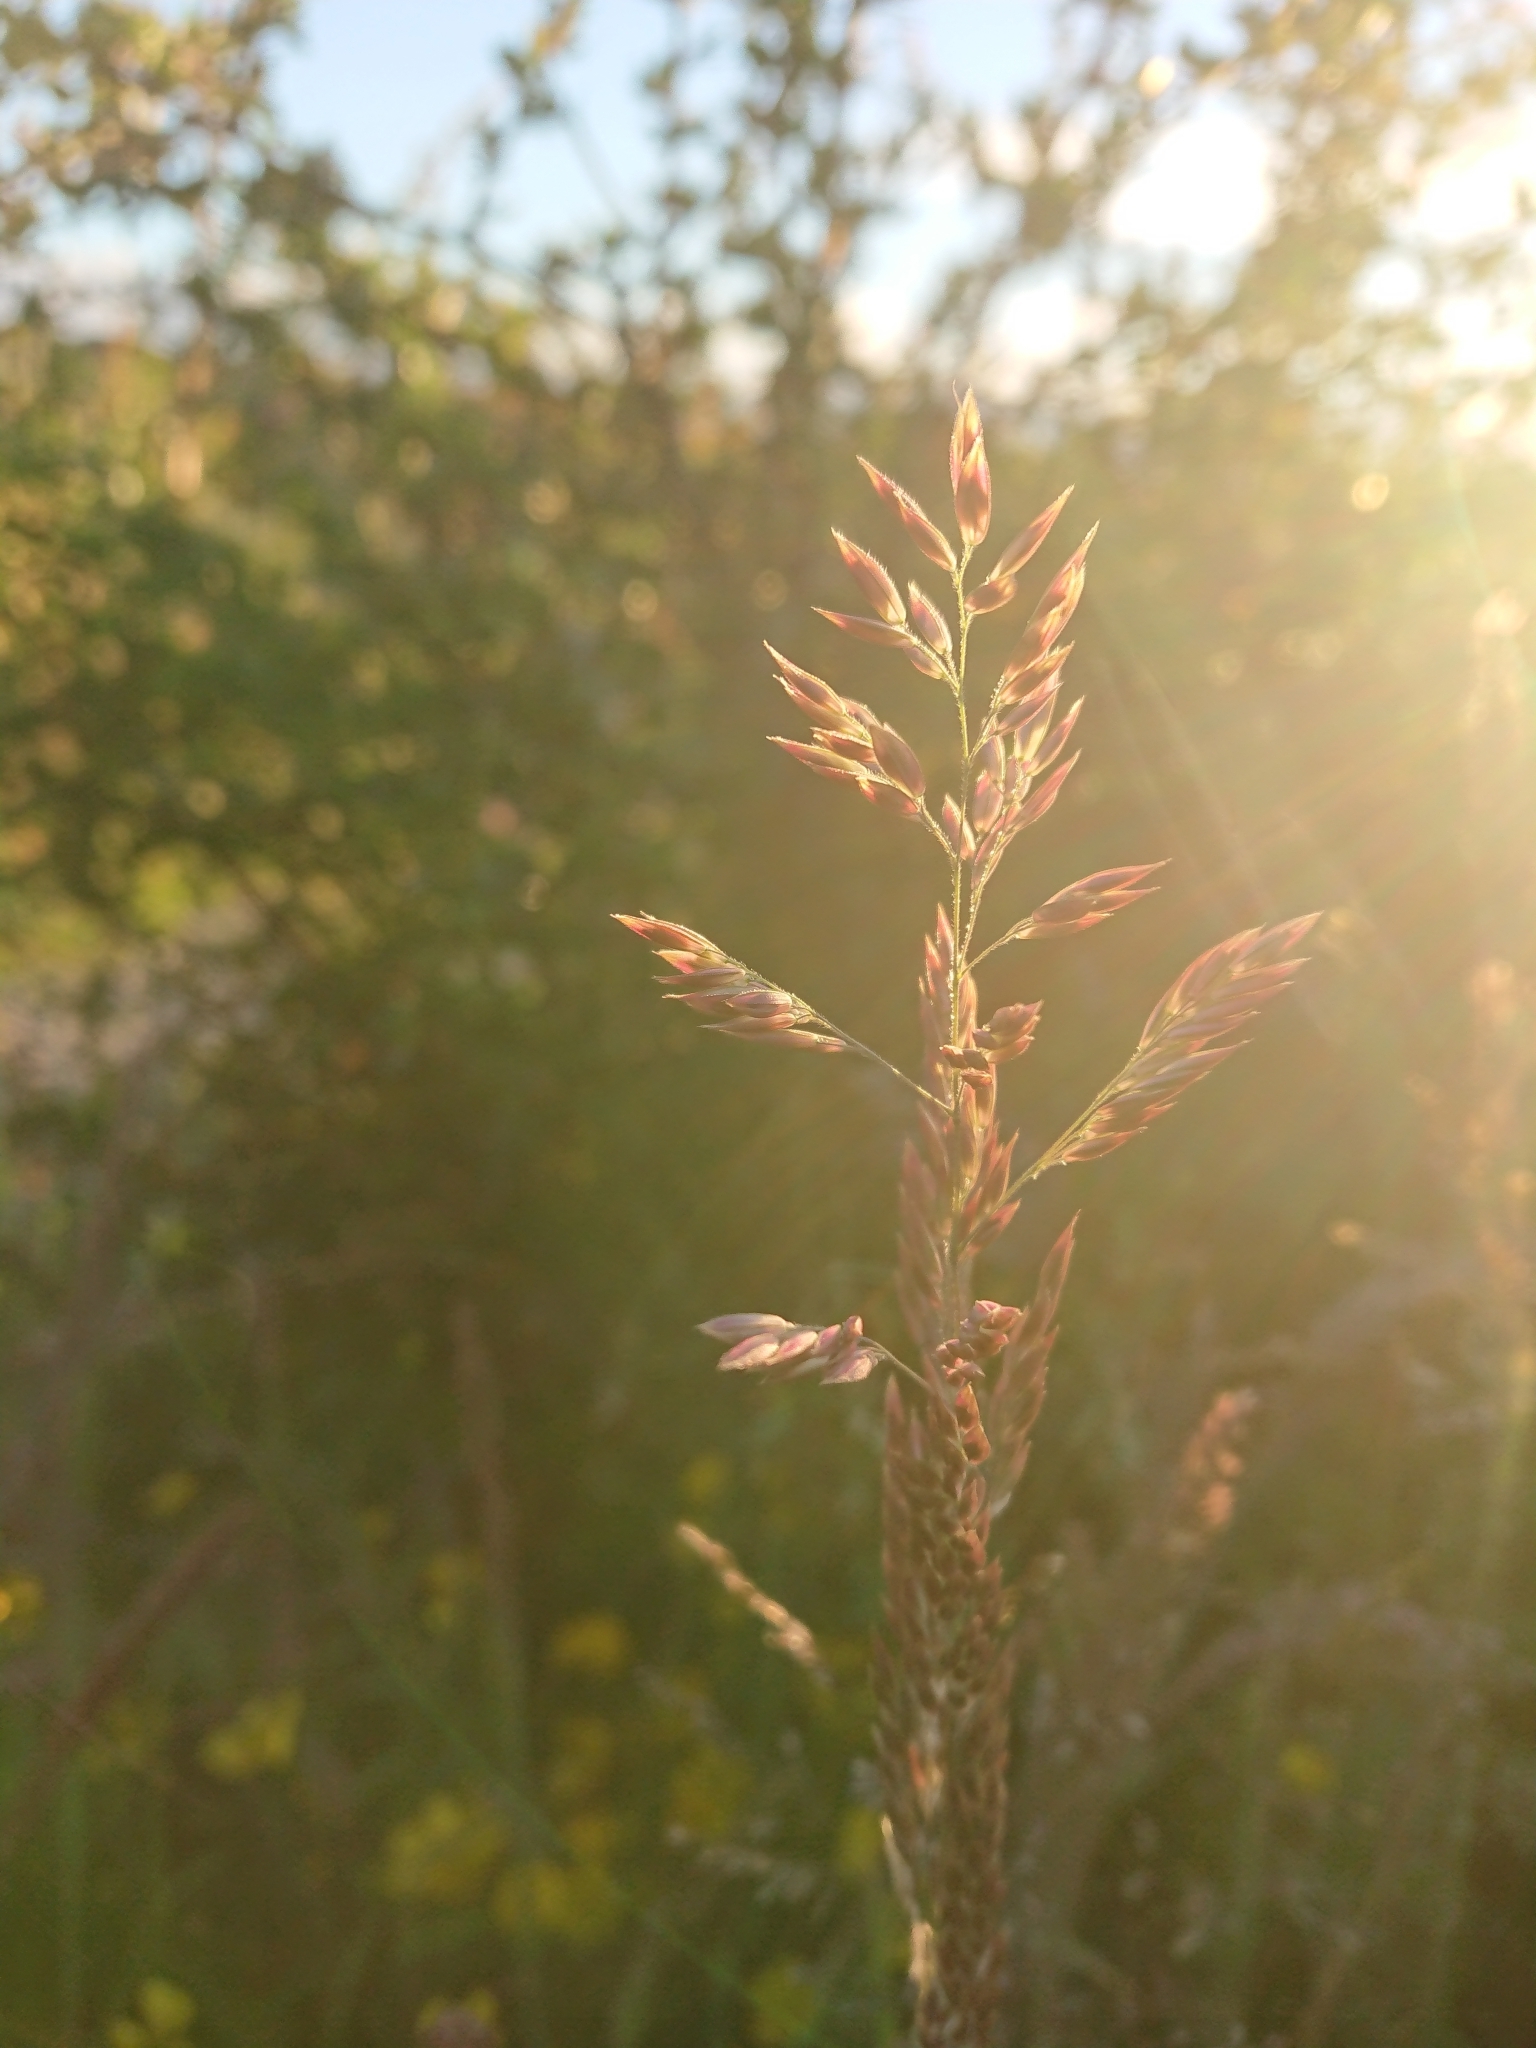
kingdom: Plantae
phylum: Tracheophyta
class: Liliopsida
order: Poales
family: Poaceae
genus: Holcus
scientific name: Holcus lanatus
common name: Yorkshire-fog
